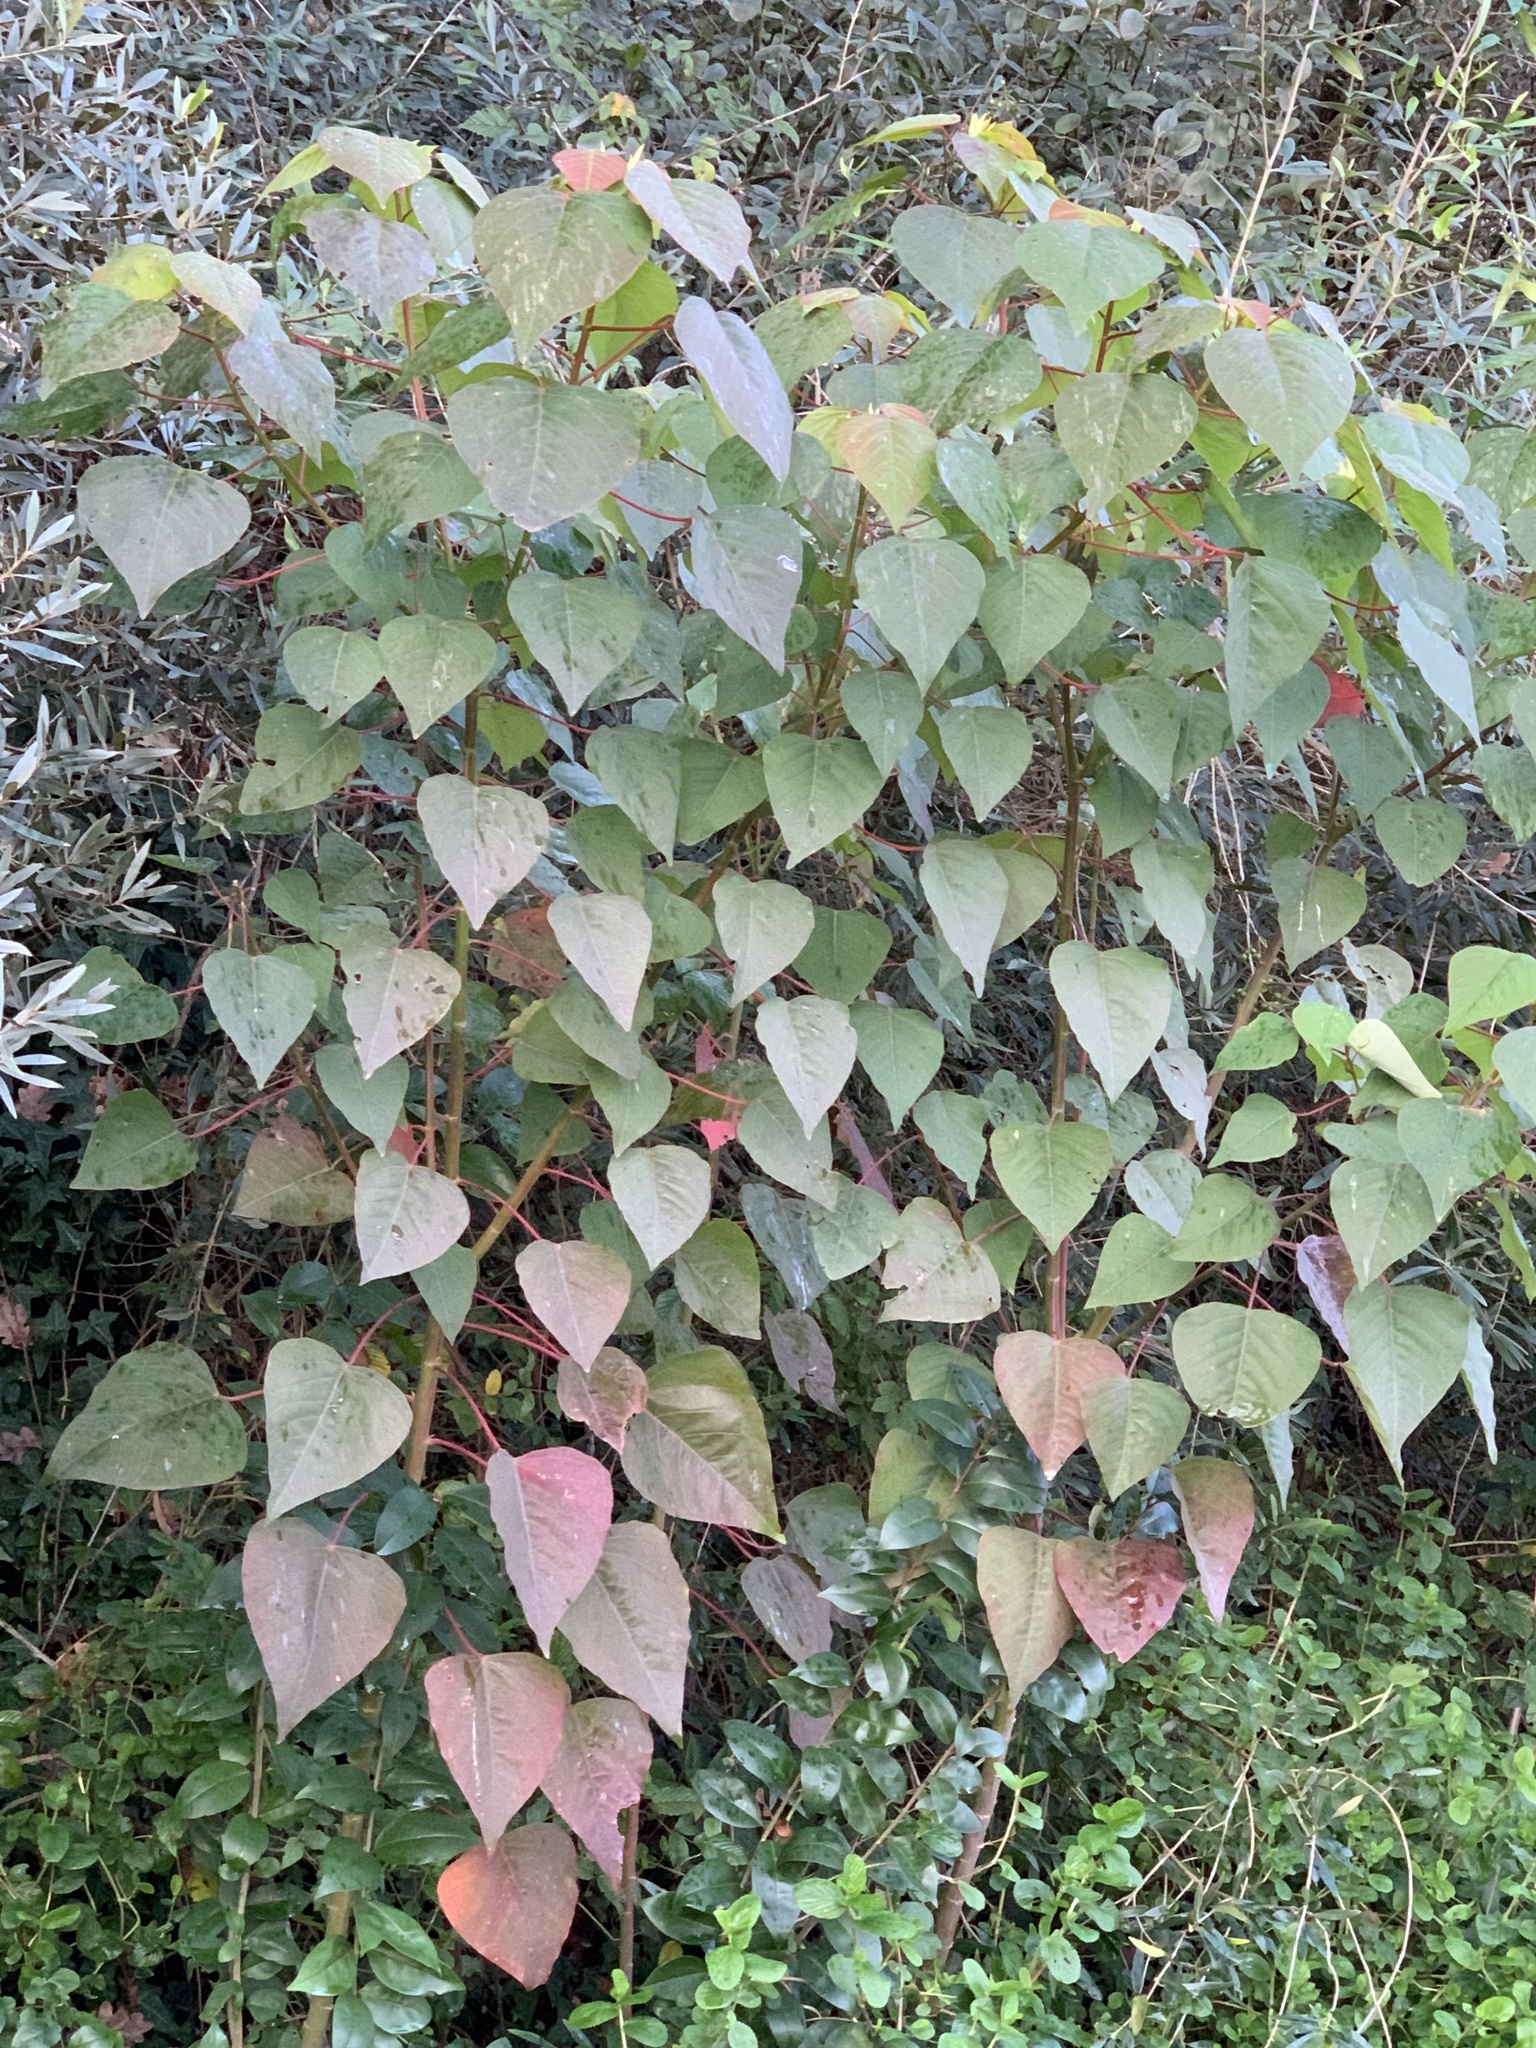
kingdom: Plantae
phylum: Tracheophyta
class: Magnoliopsida
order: Malpighiales
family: Euphorbiaceae
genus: Homalanthus
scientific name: Homalanthus populifolius
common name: Queensland poplar
